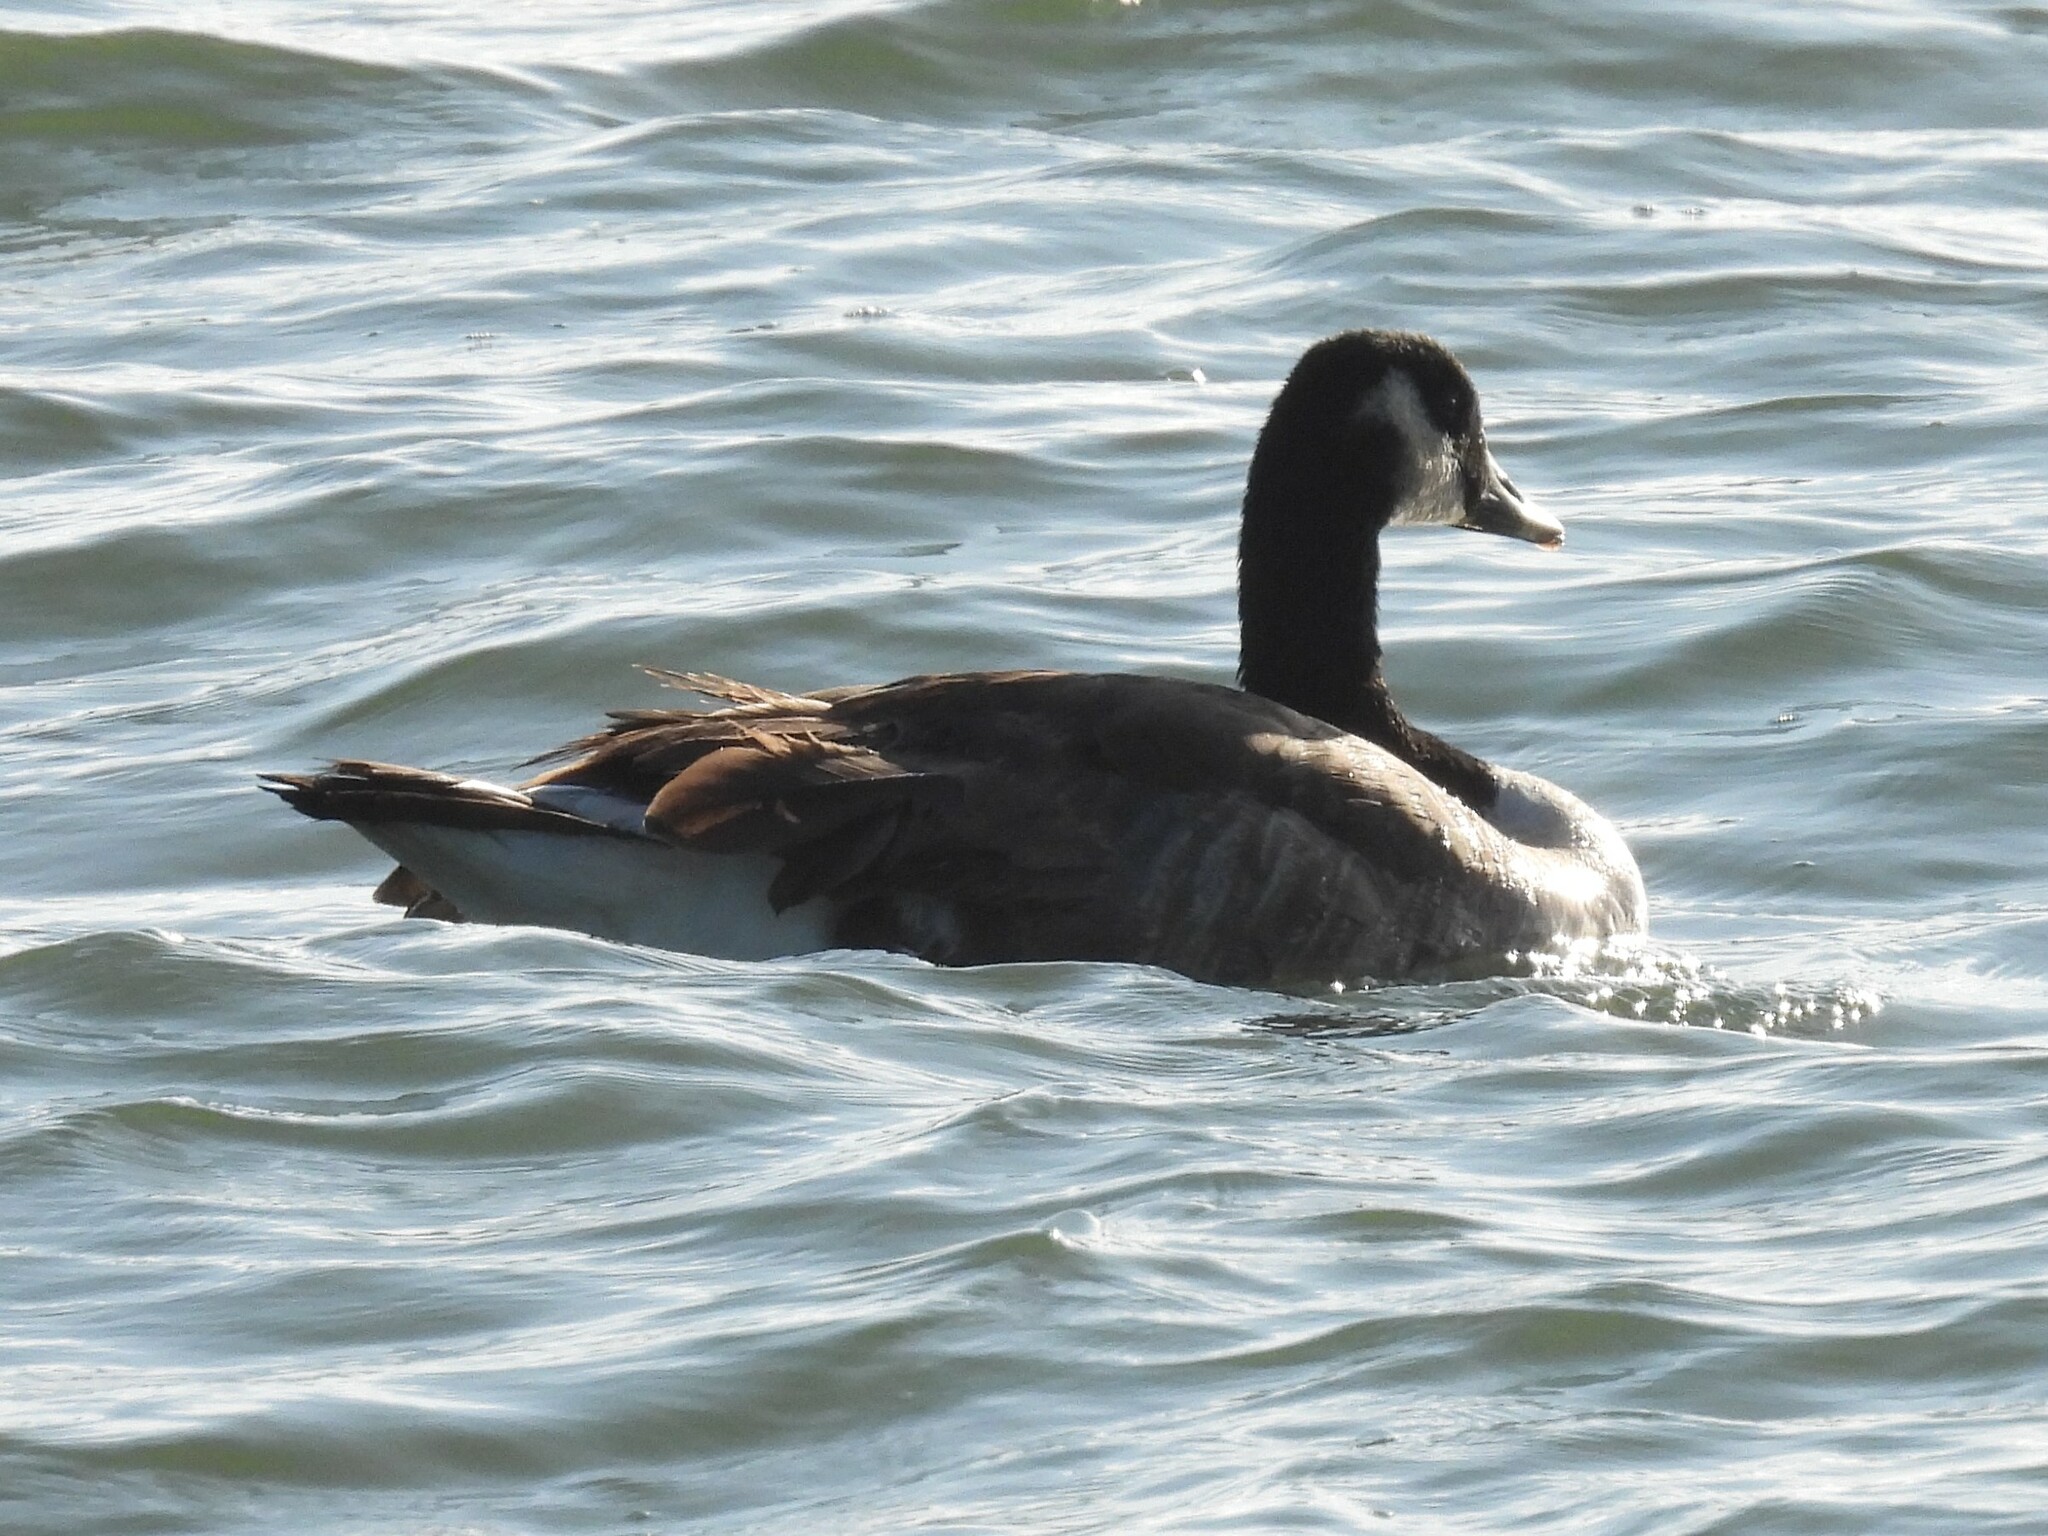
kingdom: Animalia
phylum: Chordata
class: Aves
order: Anseriformes
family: Anatidae
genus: Branta
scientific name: Branta canadensis
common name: Canada goose
